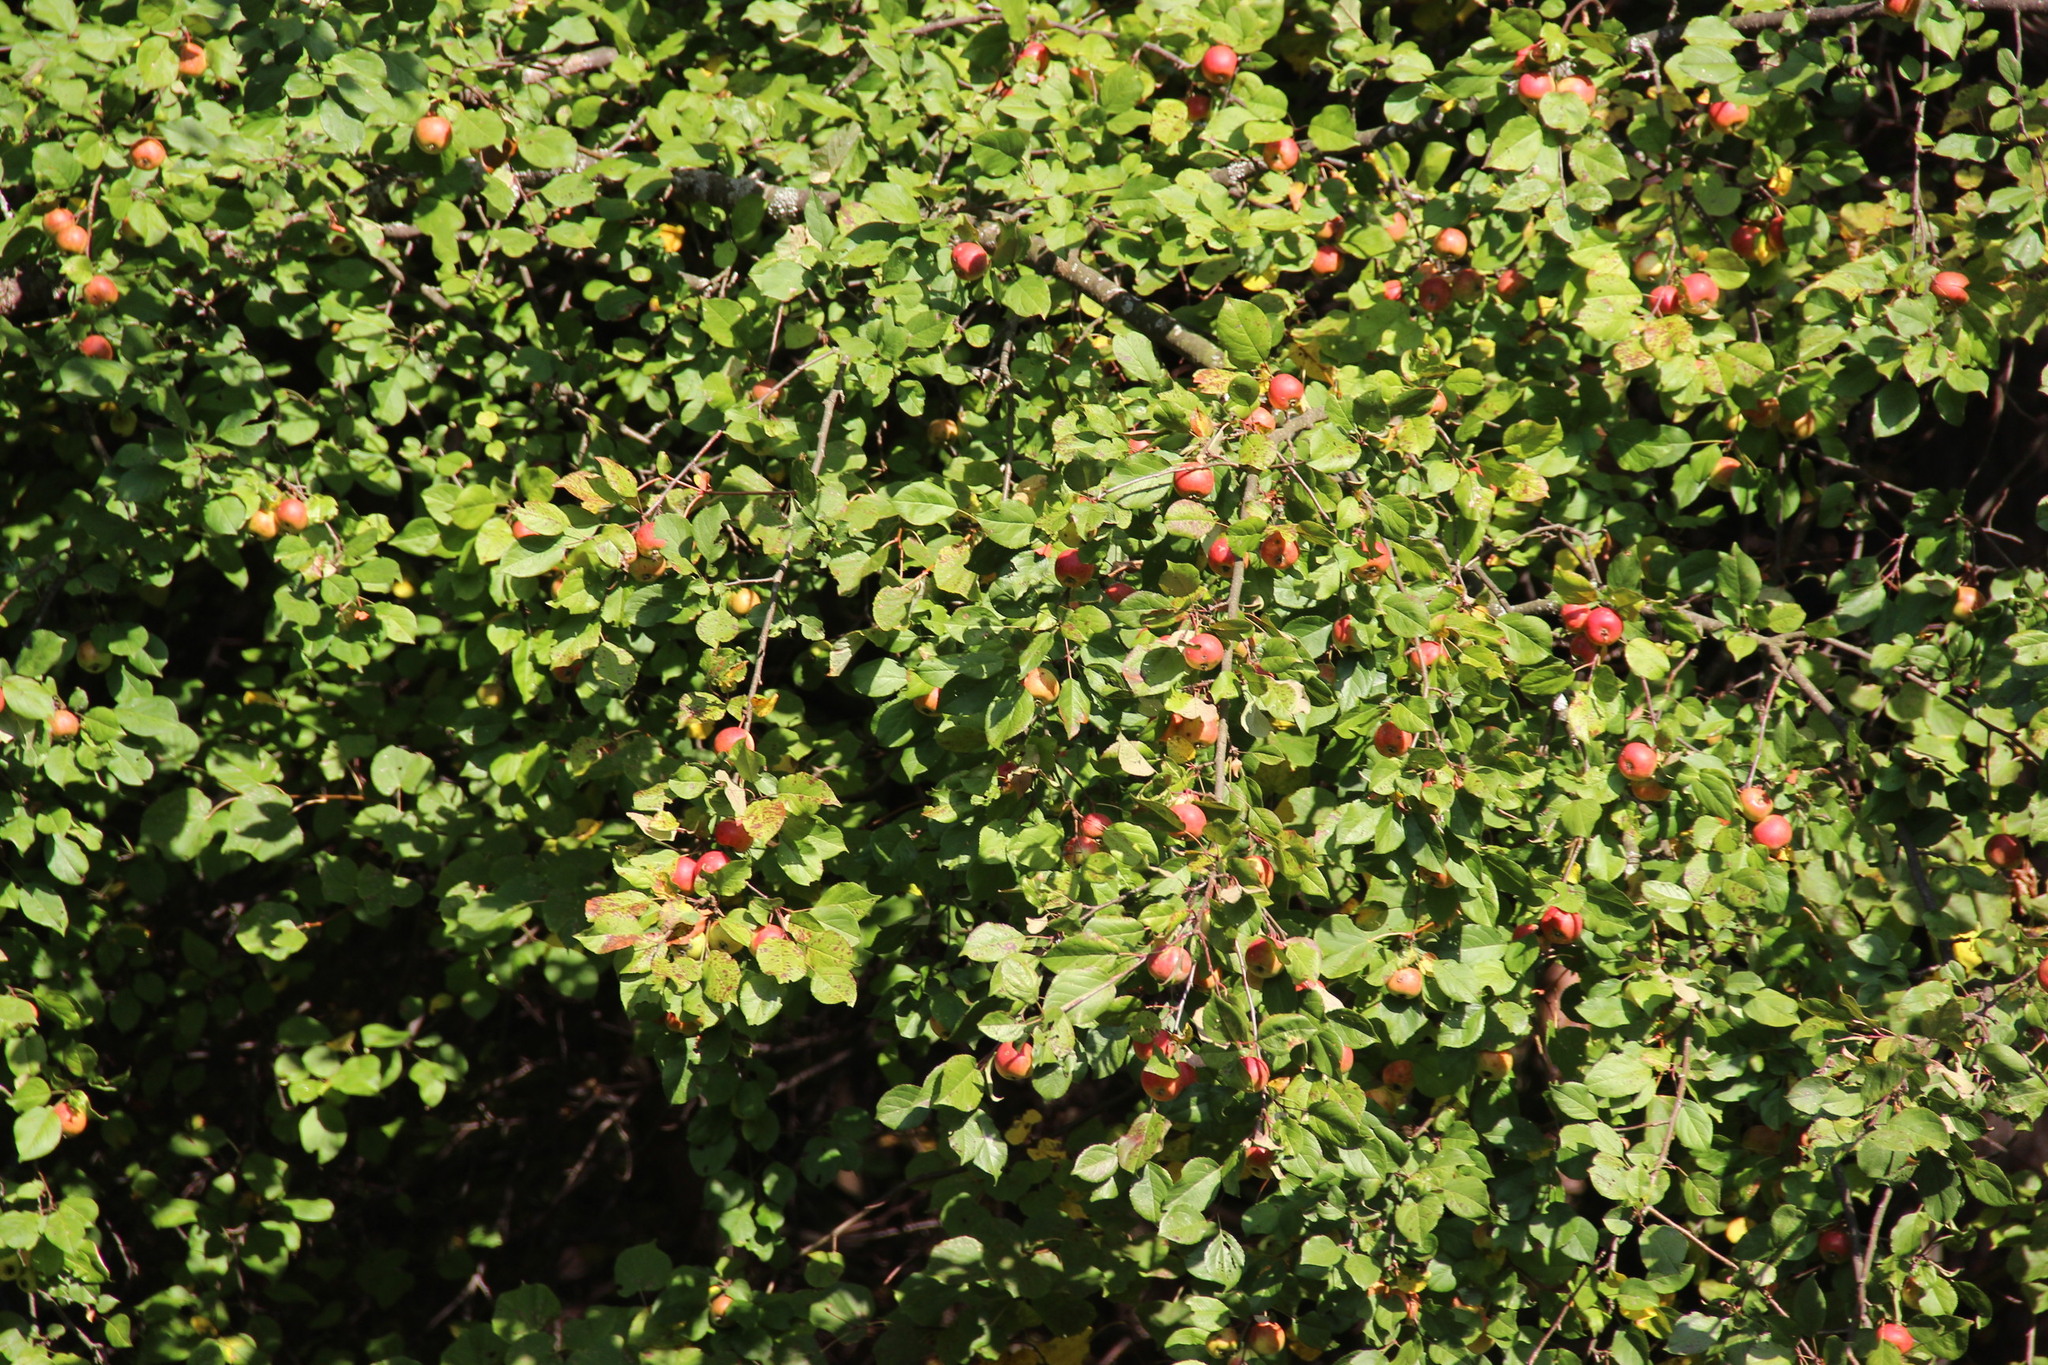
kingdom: Plantae
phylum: Tracheophyta
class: Magnoliopsida
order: Rosales
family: Rosaceae
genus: Malus
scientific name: Malus domestica
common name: Apple
